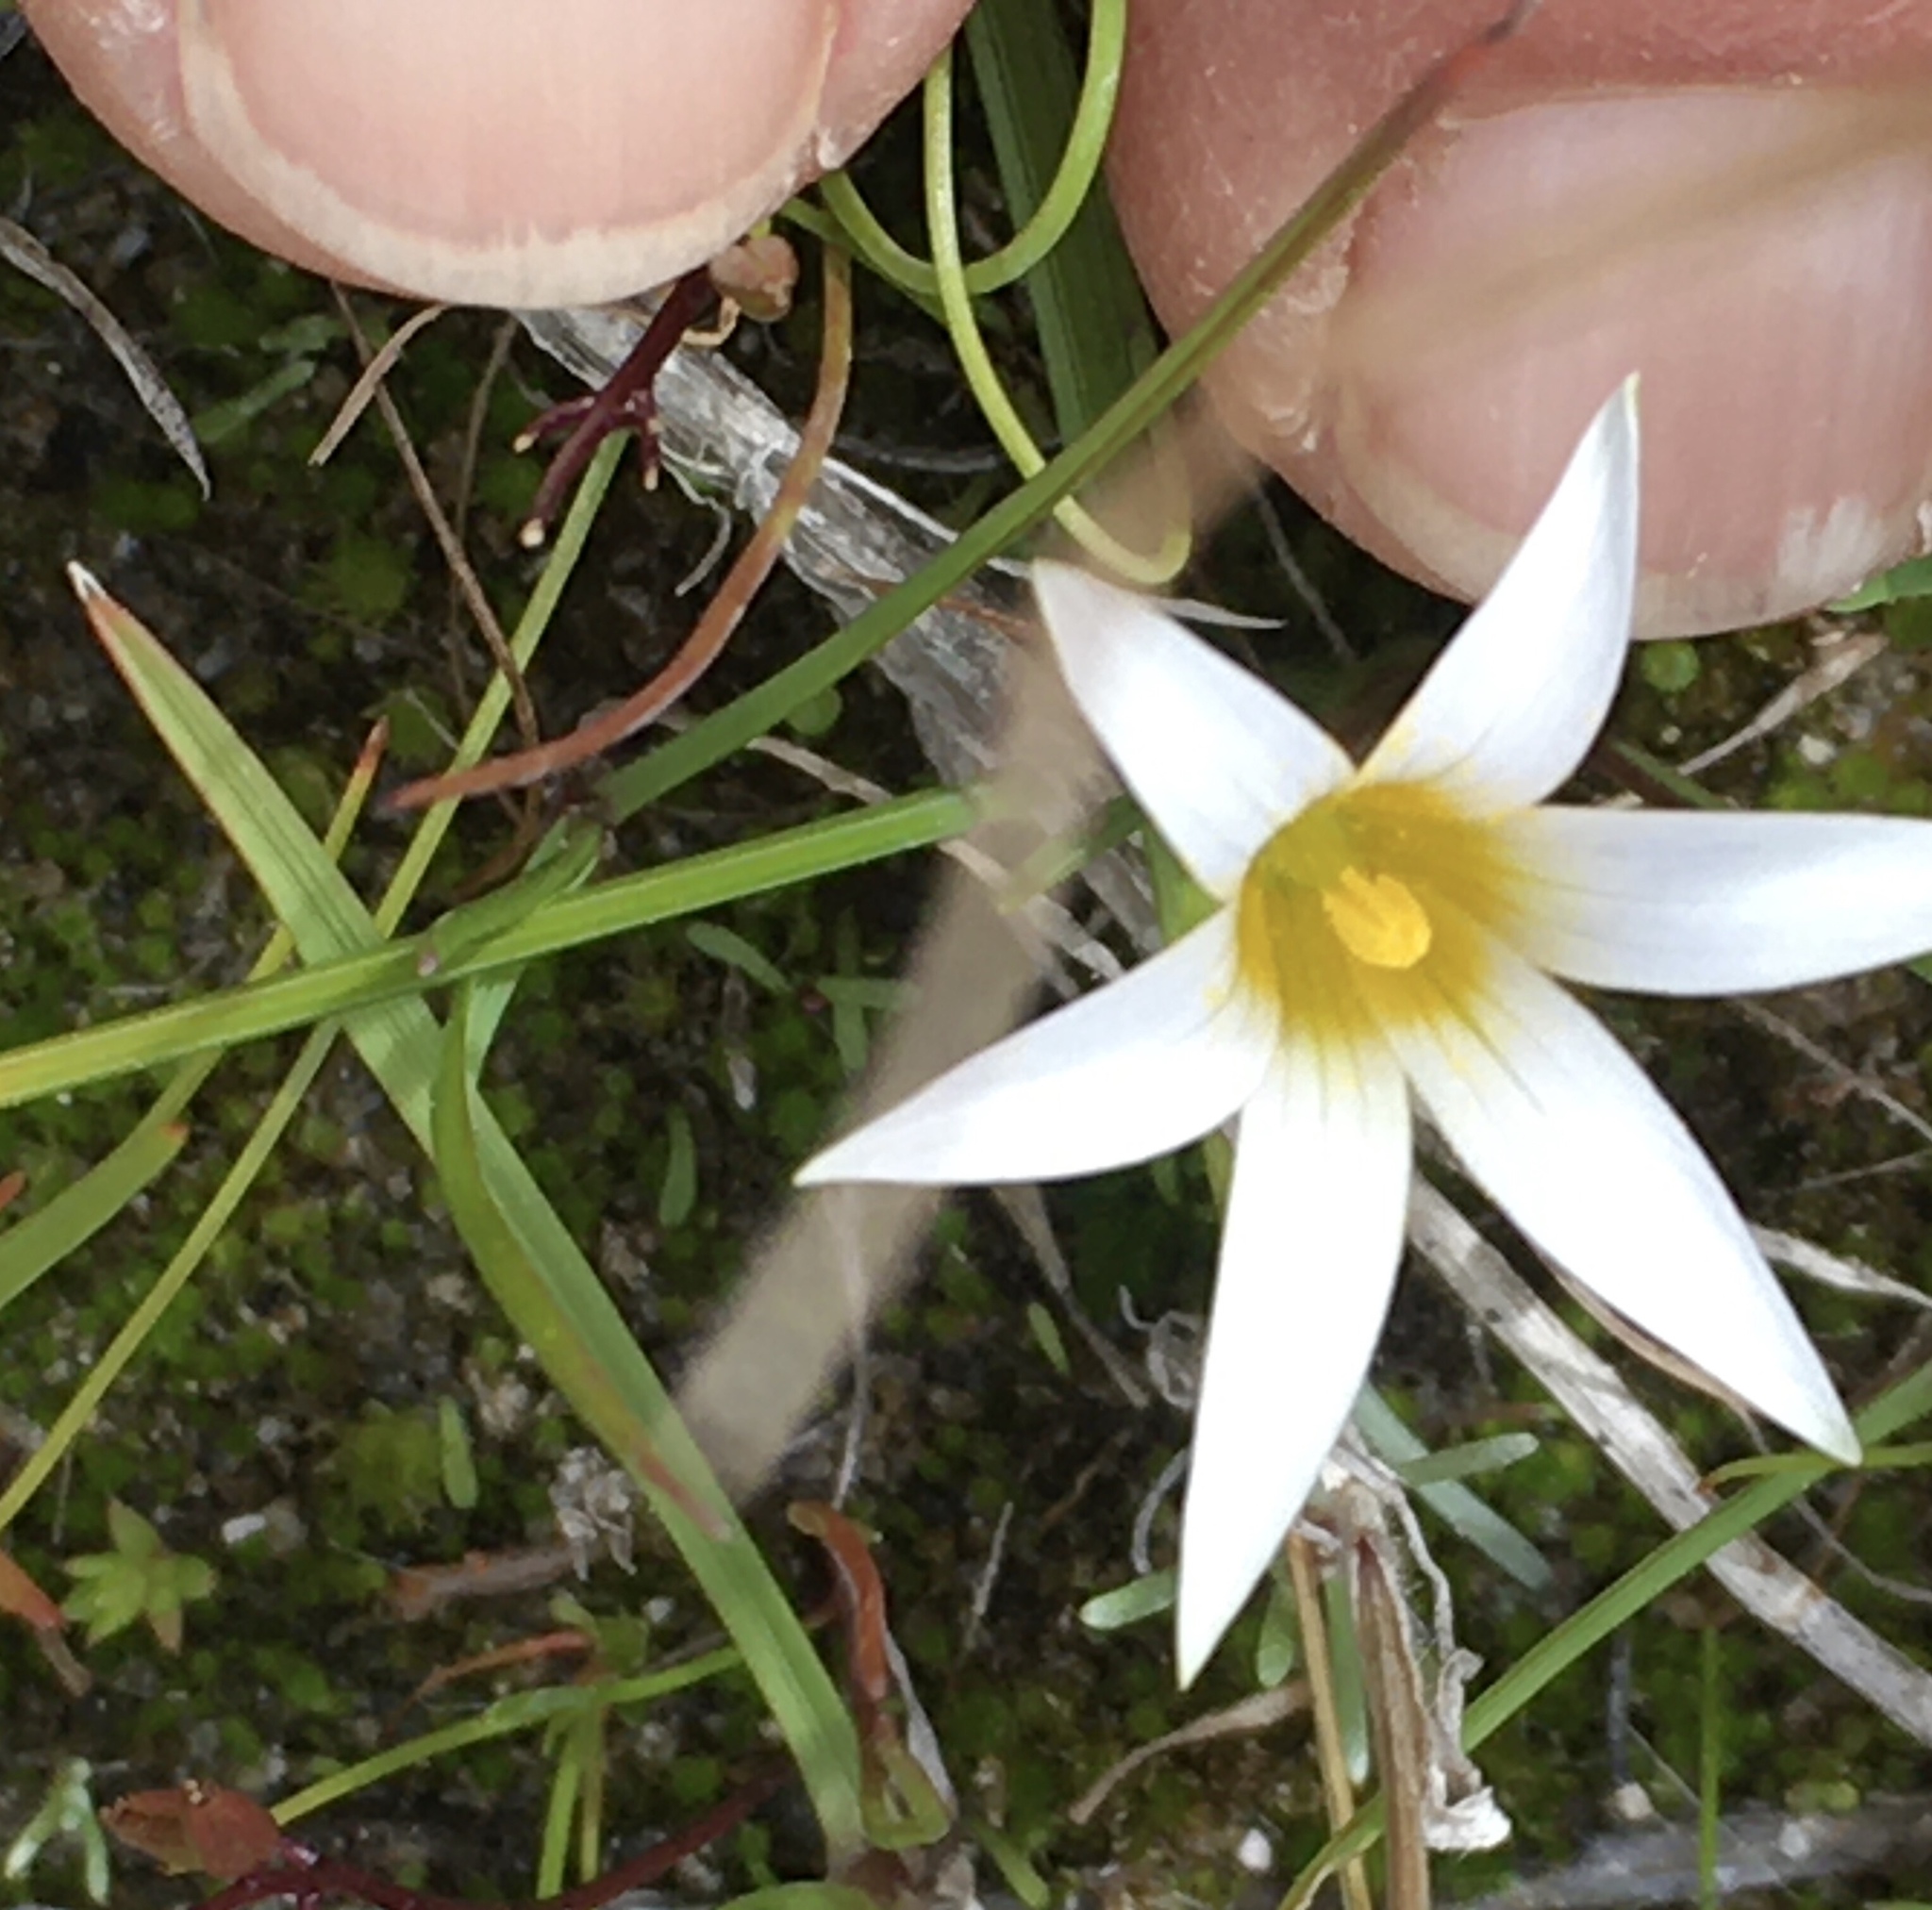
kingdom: Plantae
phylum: Tracheophyta
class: Liliopsida
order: Asparagales
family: Iridaceae
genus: Romulea
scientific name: Romulea flava
